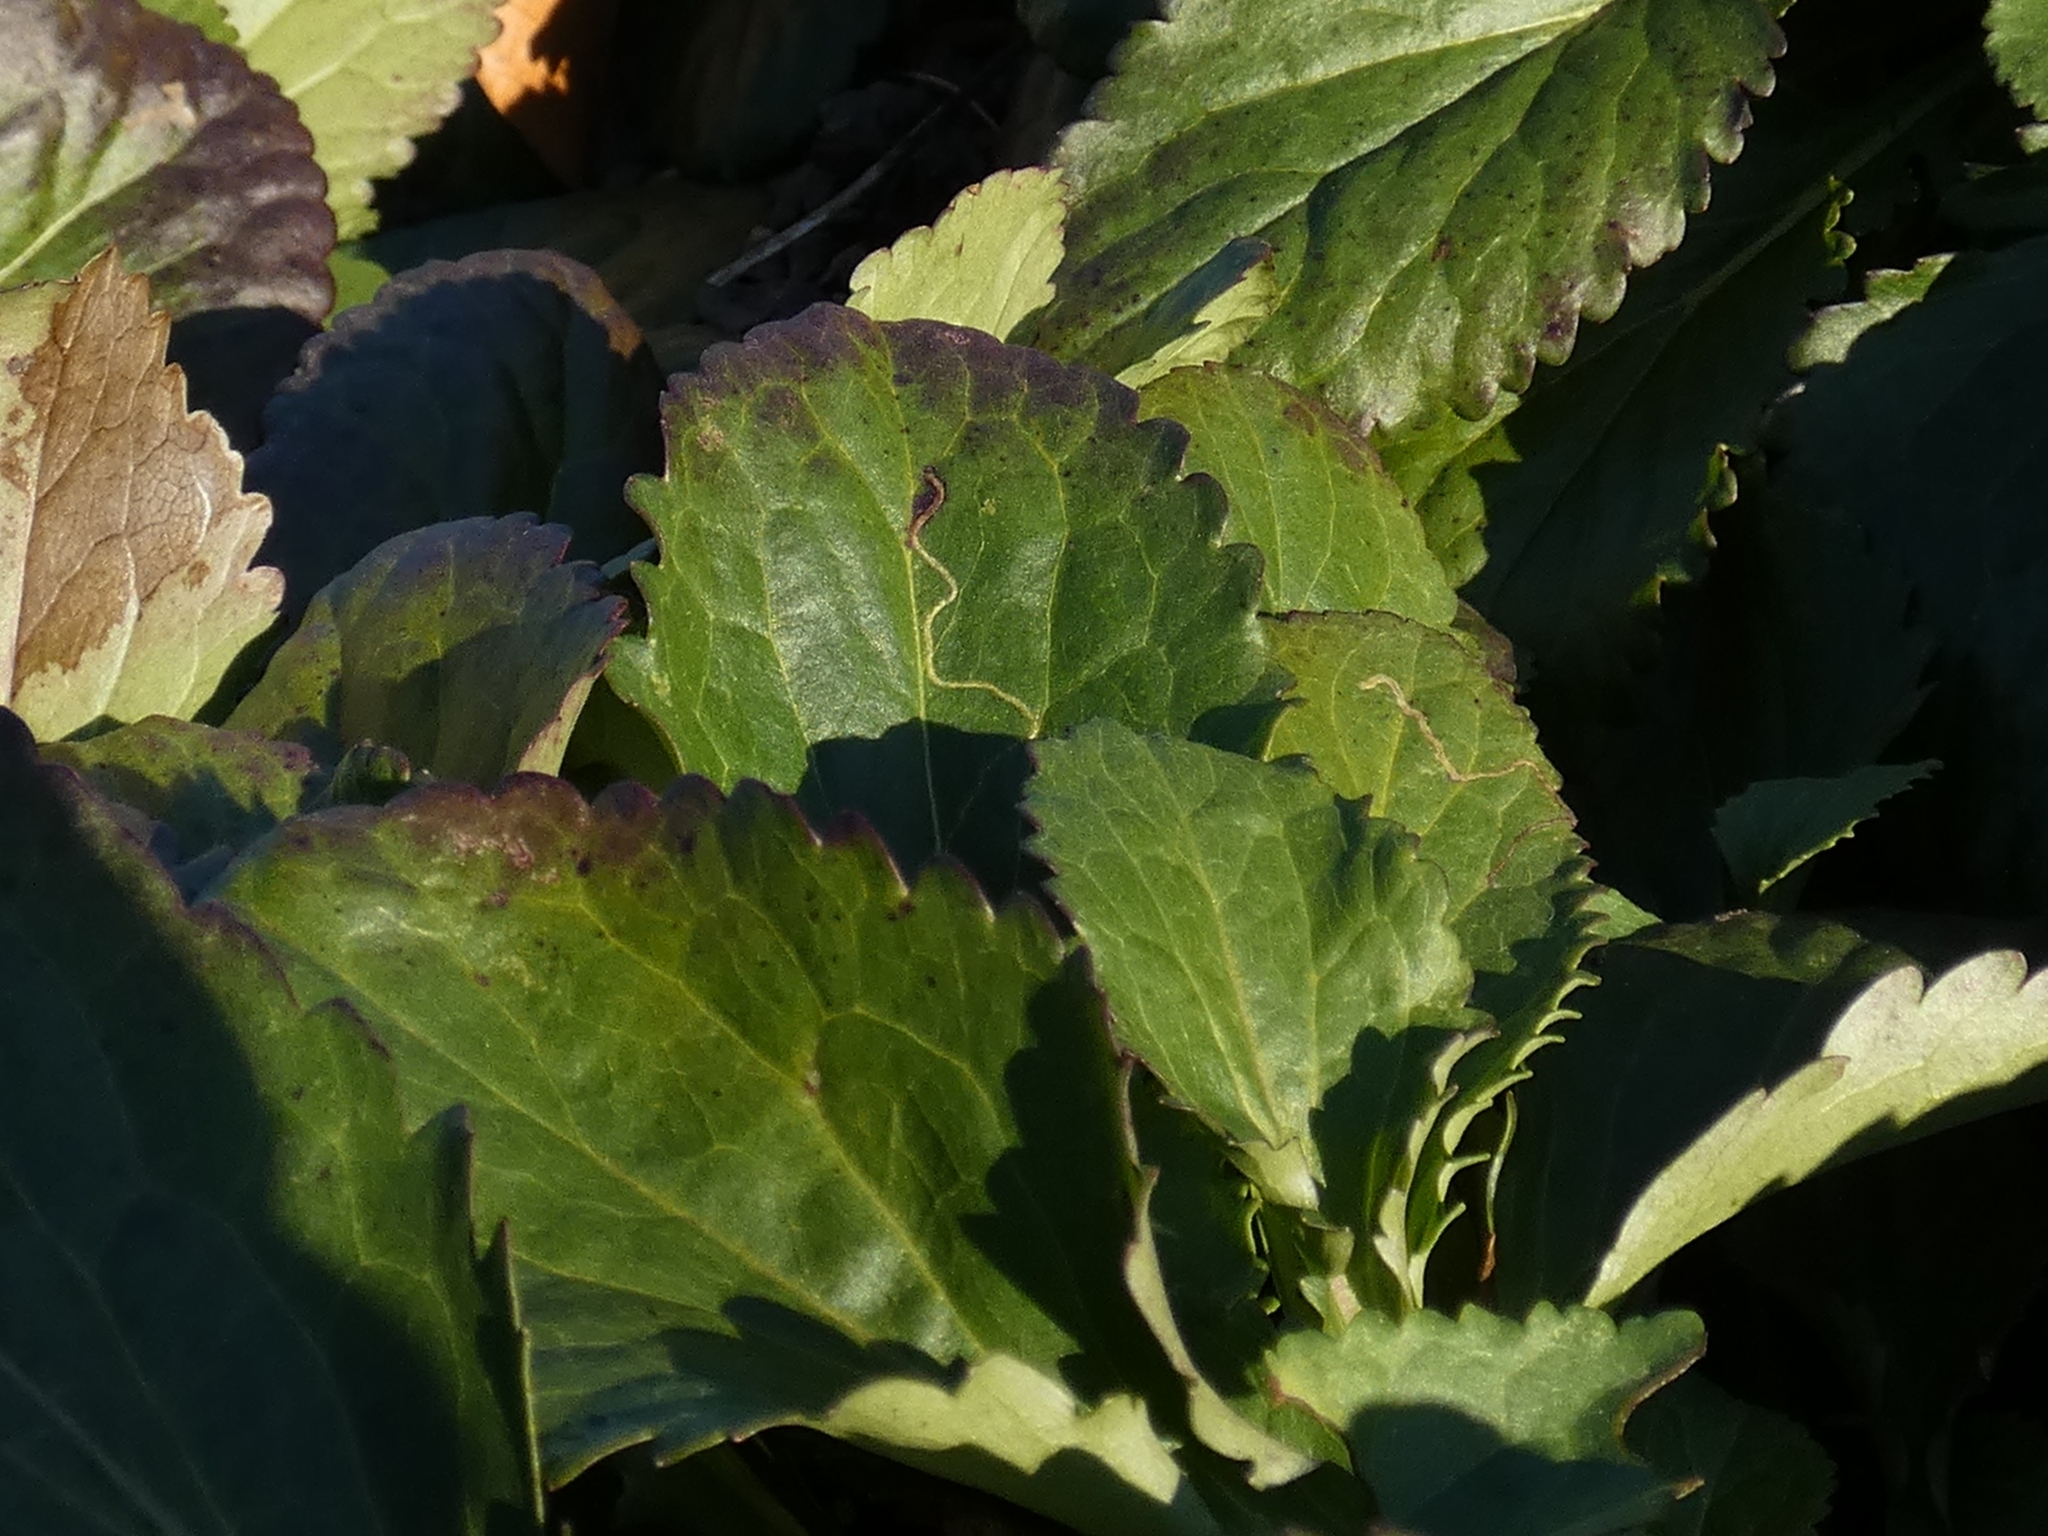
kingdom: Animalia
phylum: Arthropoda
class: Insecta
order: Lepidoptera
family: Gracillariidae
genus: Phyllocnistis
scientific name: Phyllocnistis insignis
